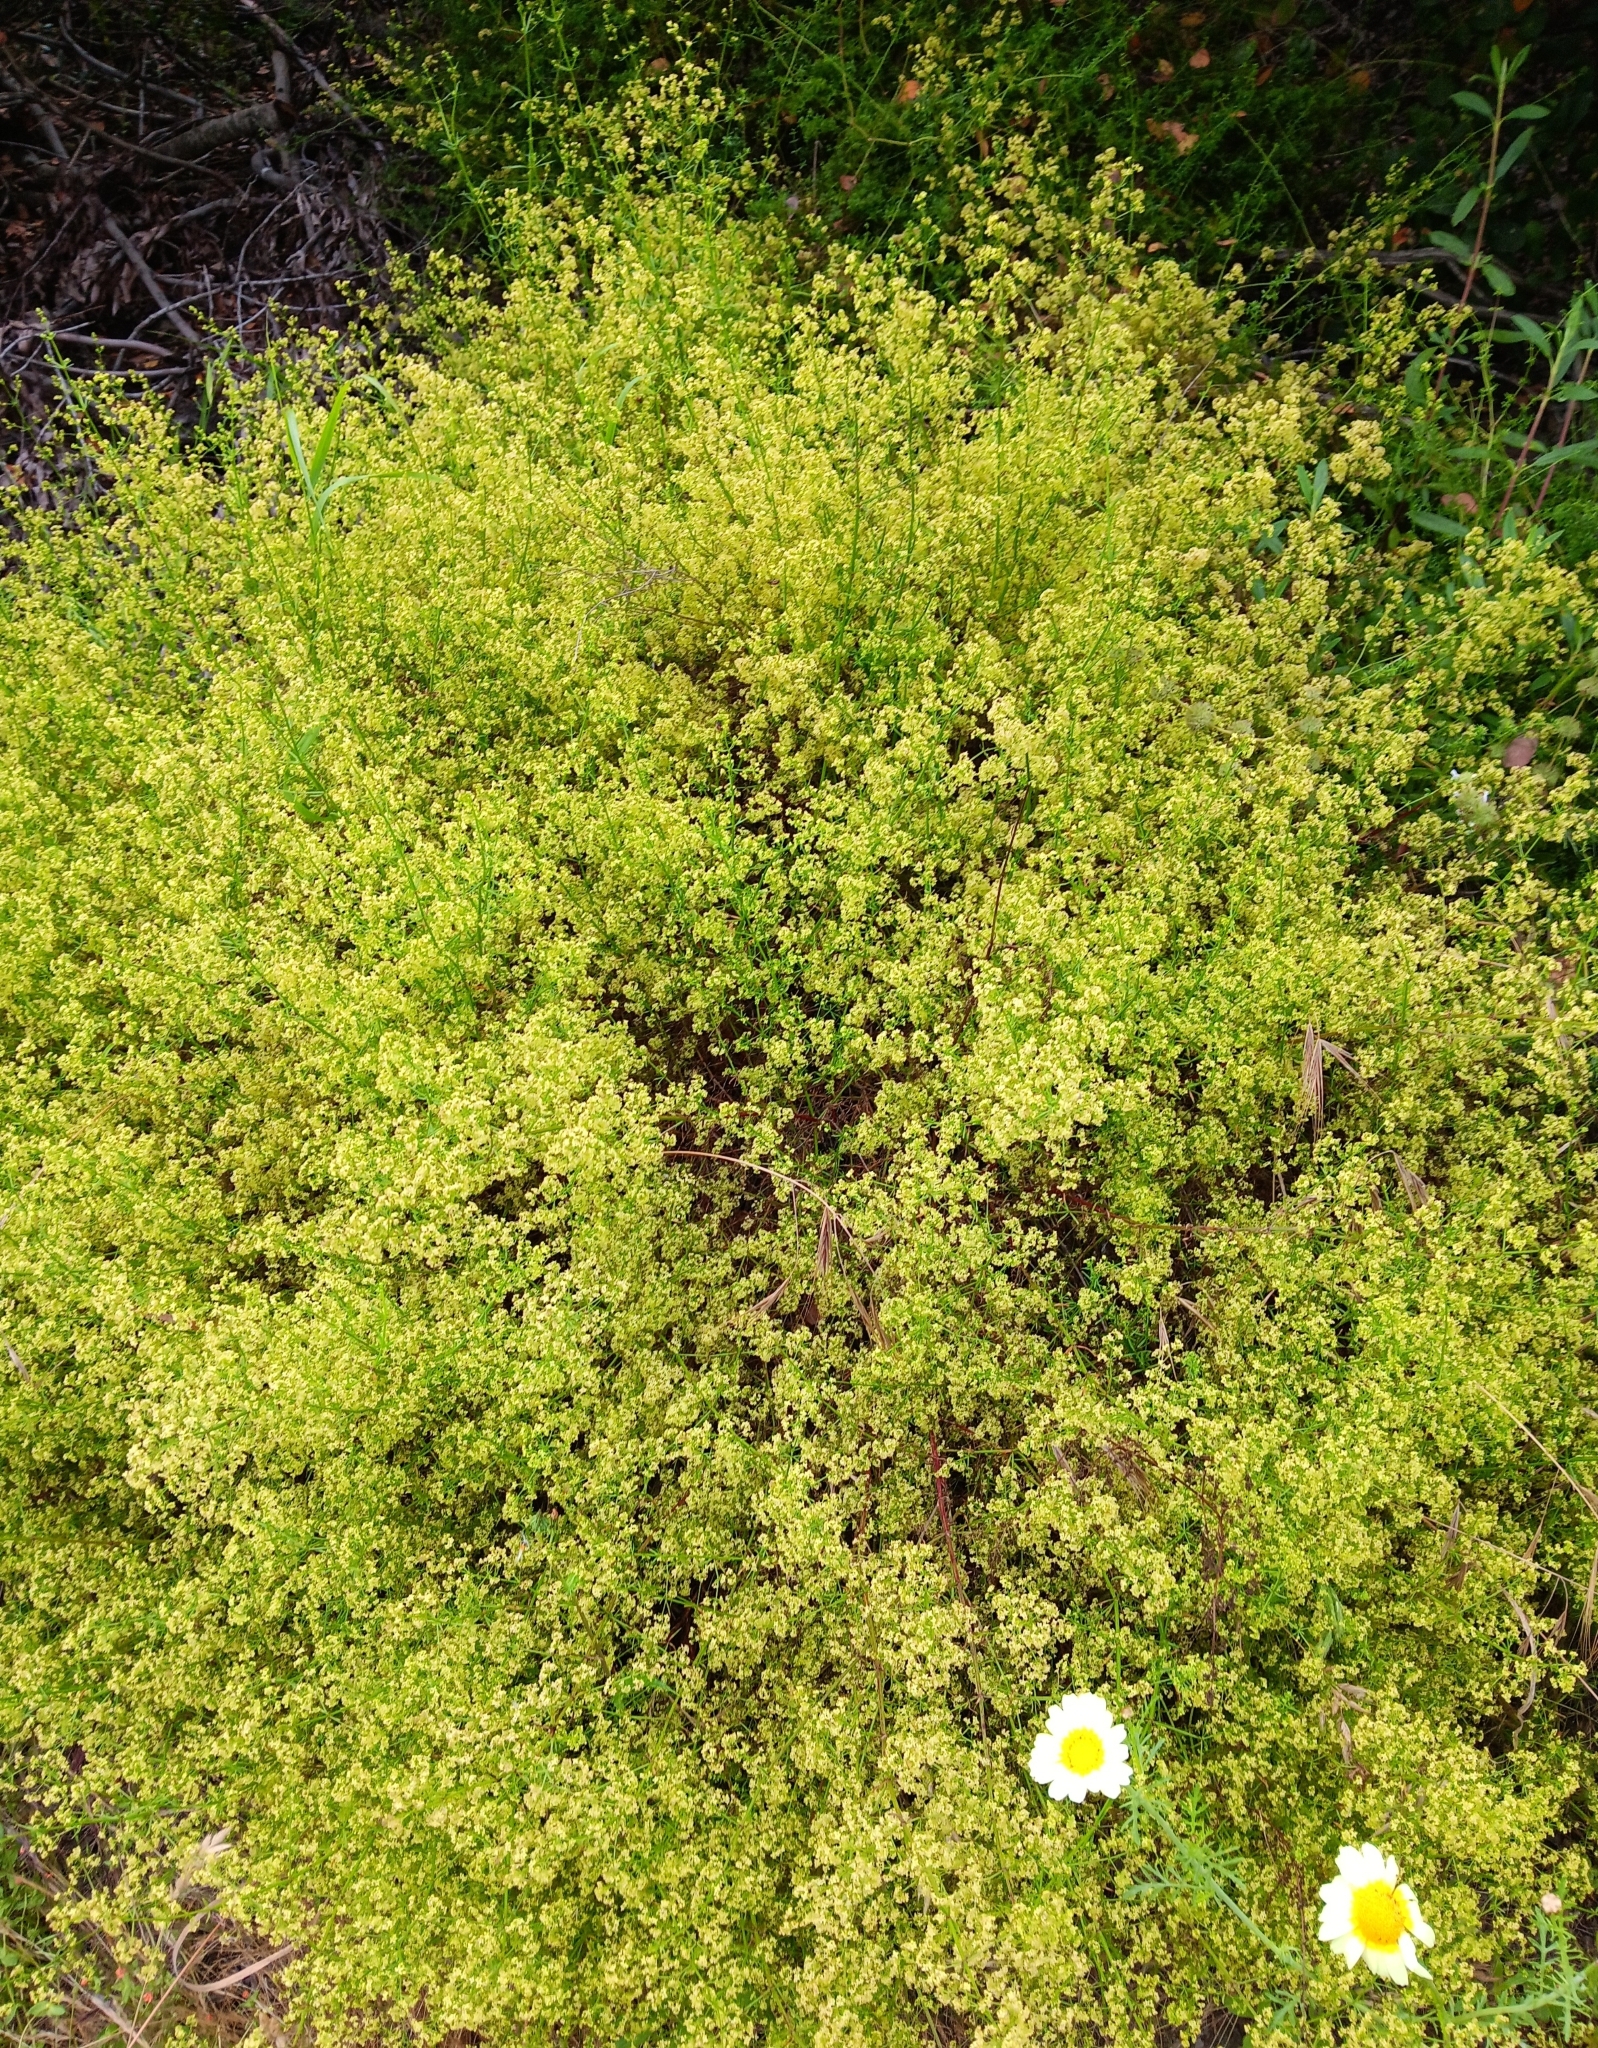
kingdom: Plantae
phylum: Tracheophyta
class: Magnoliopsida
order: Gentianales
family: Rubiaceae
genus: Galium
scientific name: Galium angustifolium
